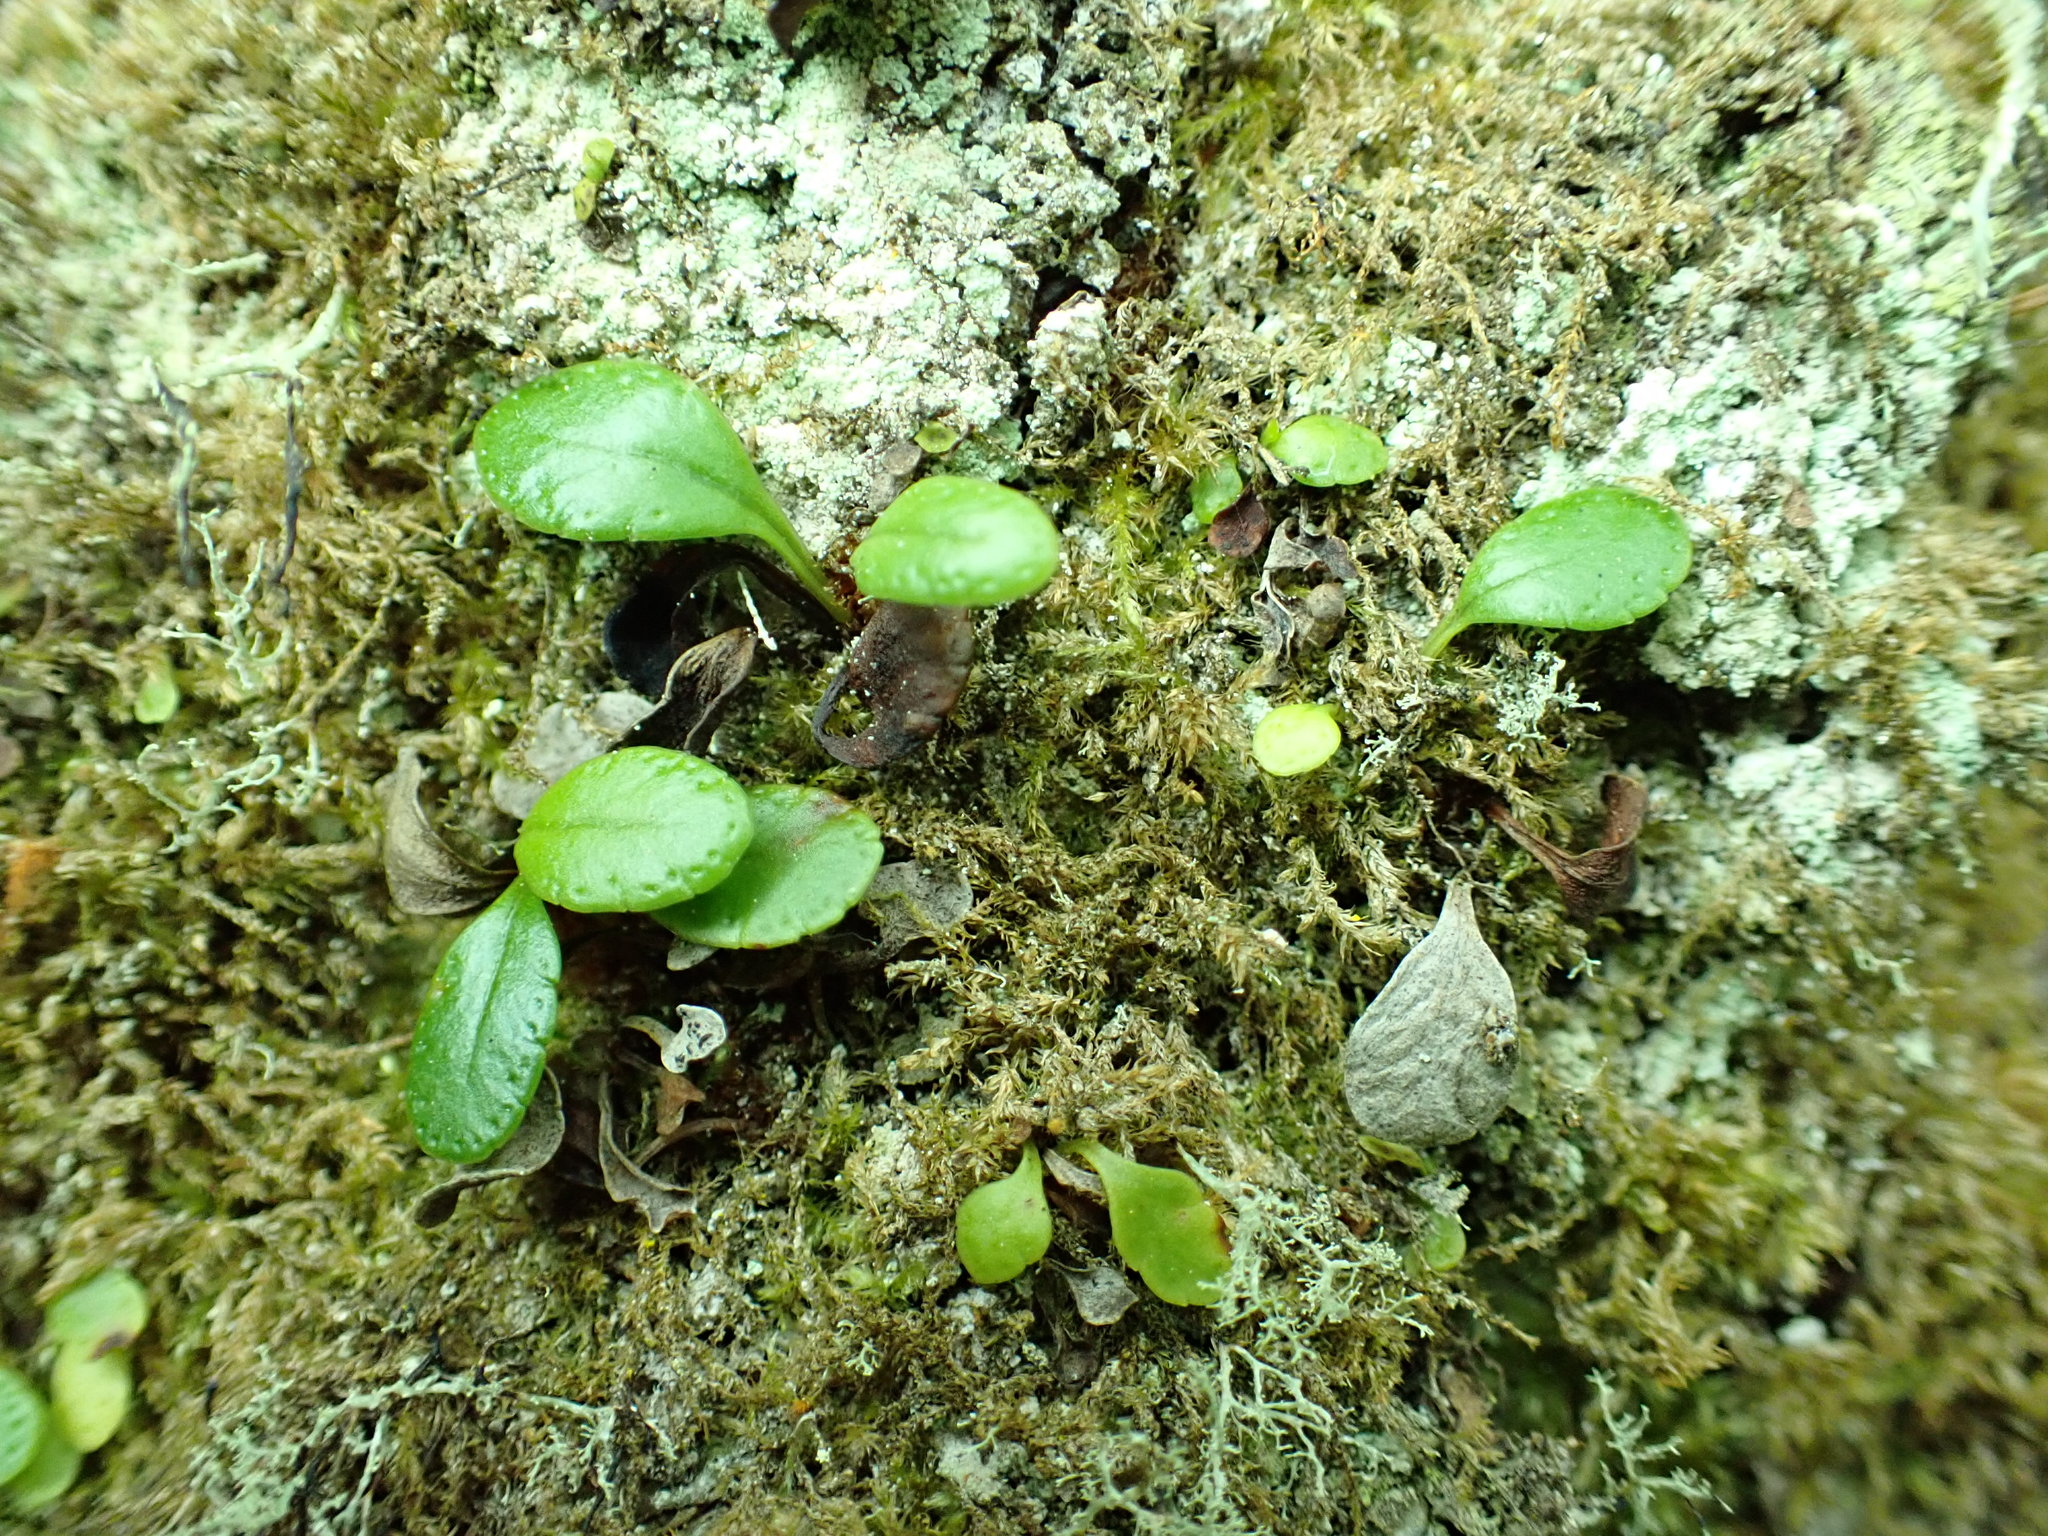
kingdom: Plantae
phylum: Tracheophyta
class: Polypodiopsida
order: Polypodiales
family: Polypodiaceae
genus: Polypodium
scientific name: Polypodium scouleri
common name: Scouler's polypody
